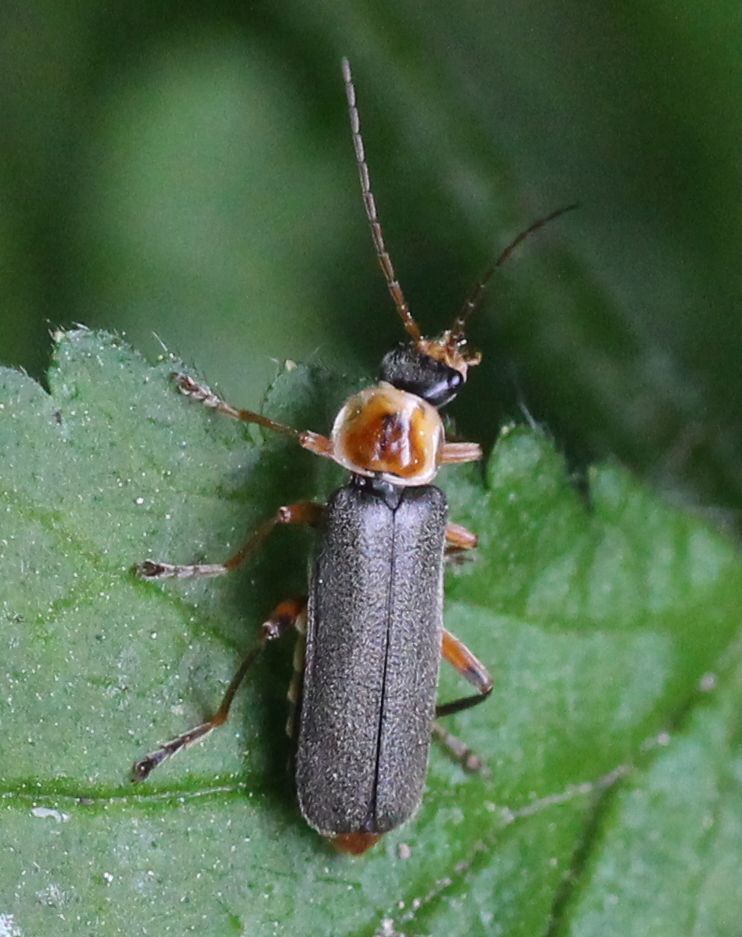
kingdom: Animalia
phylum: Arthropoda
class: Insecta
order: Coleoptera
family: Cantharidae
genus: Cantharis
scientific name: Cantharis nigricans
